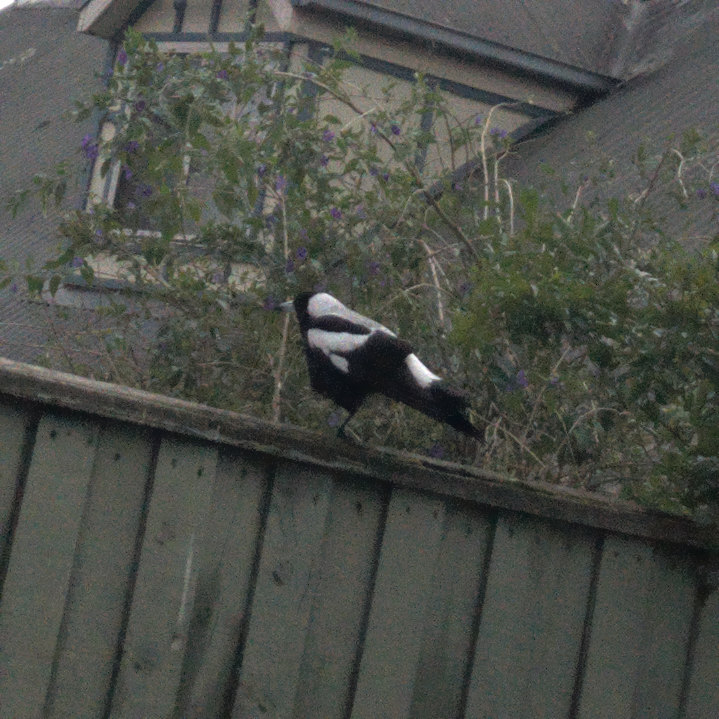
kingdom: Animalia
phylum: Chordata
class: Aves
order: Passeriformes
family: Cracticidae
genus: Gymnorhina
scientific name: Gymnorhina tibicen
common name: Australian magpie
